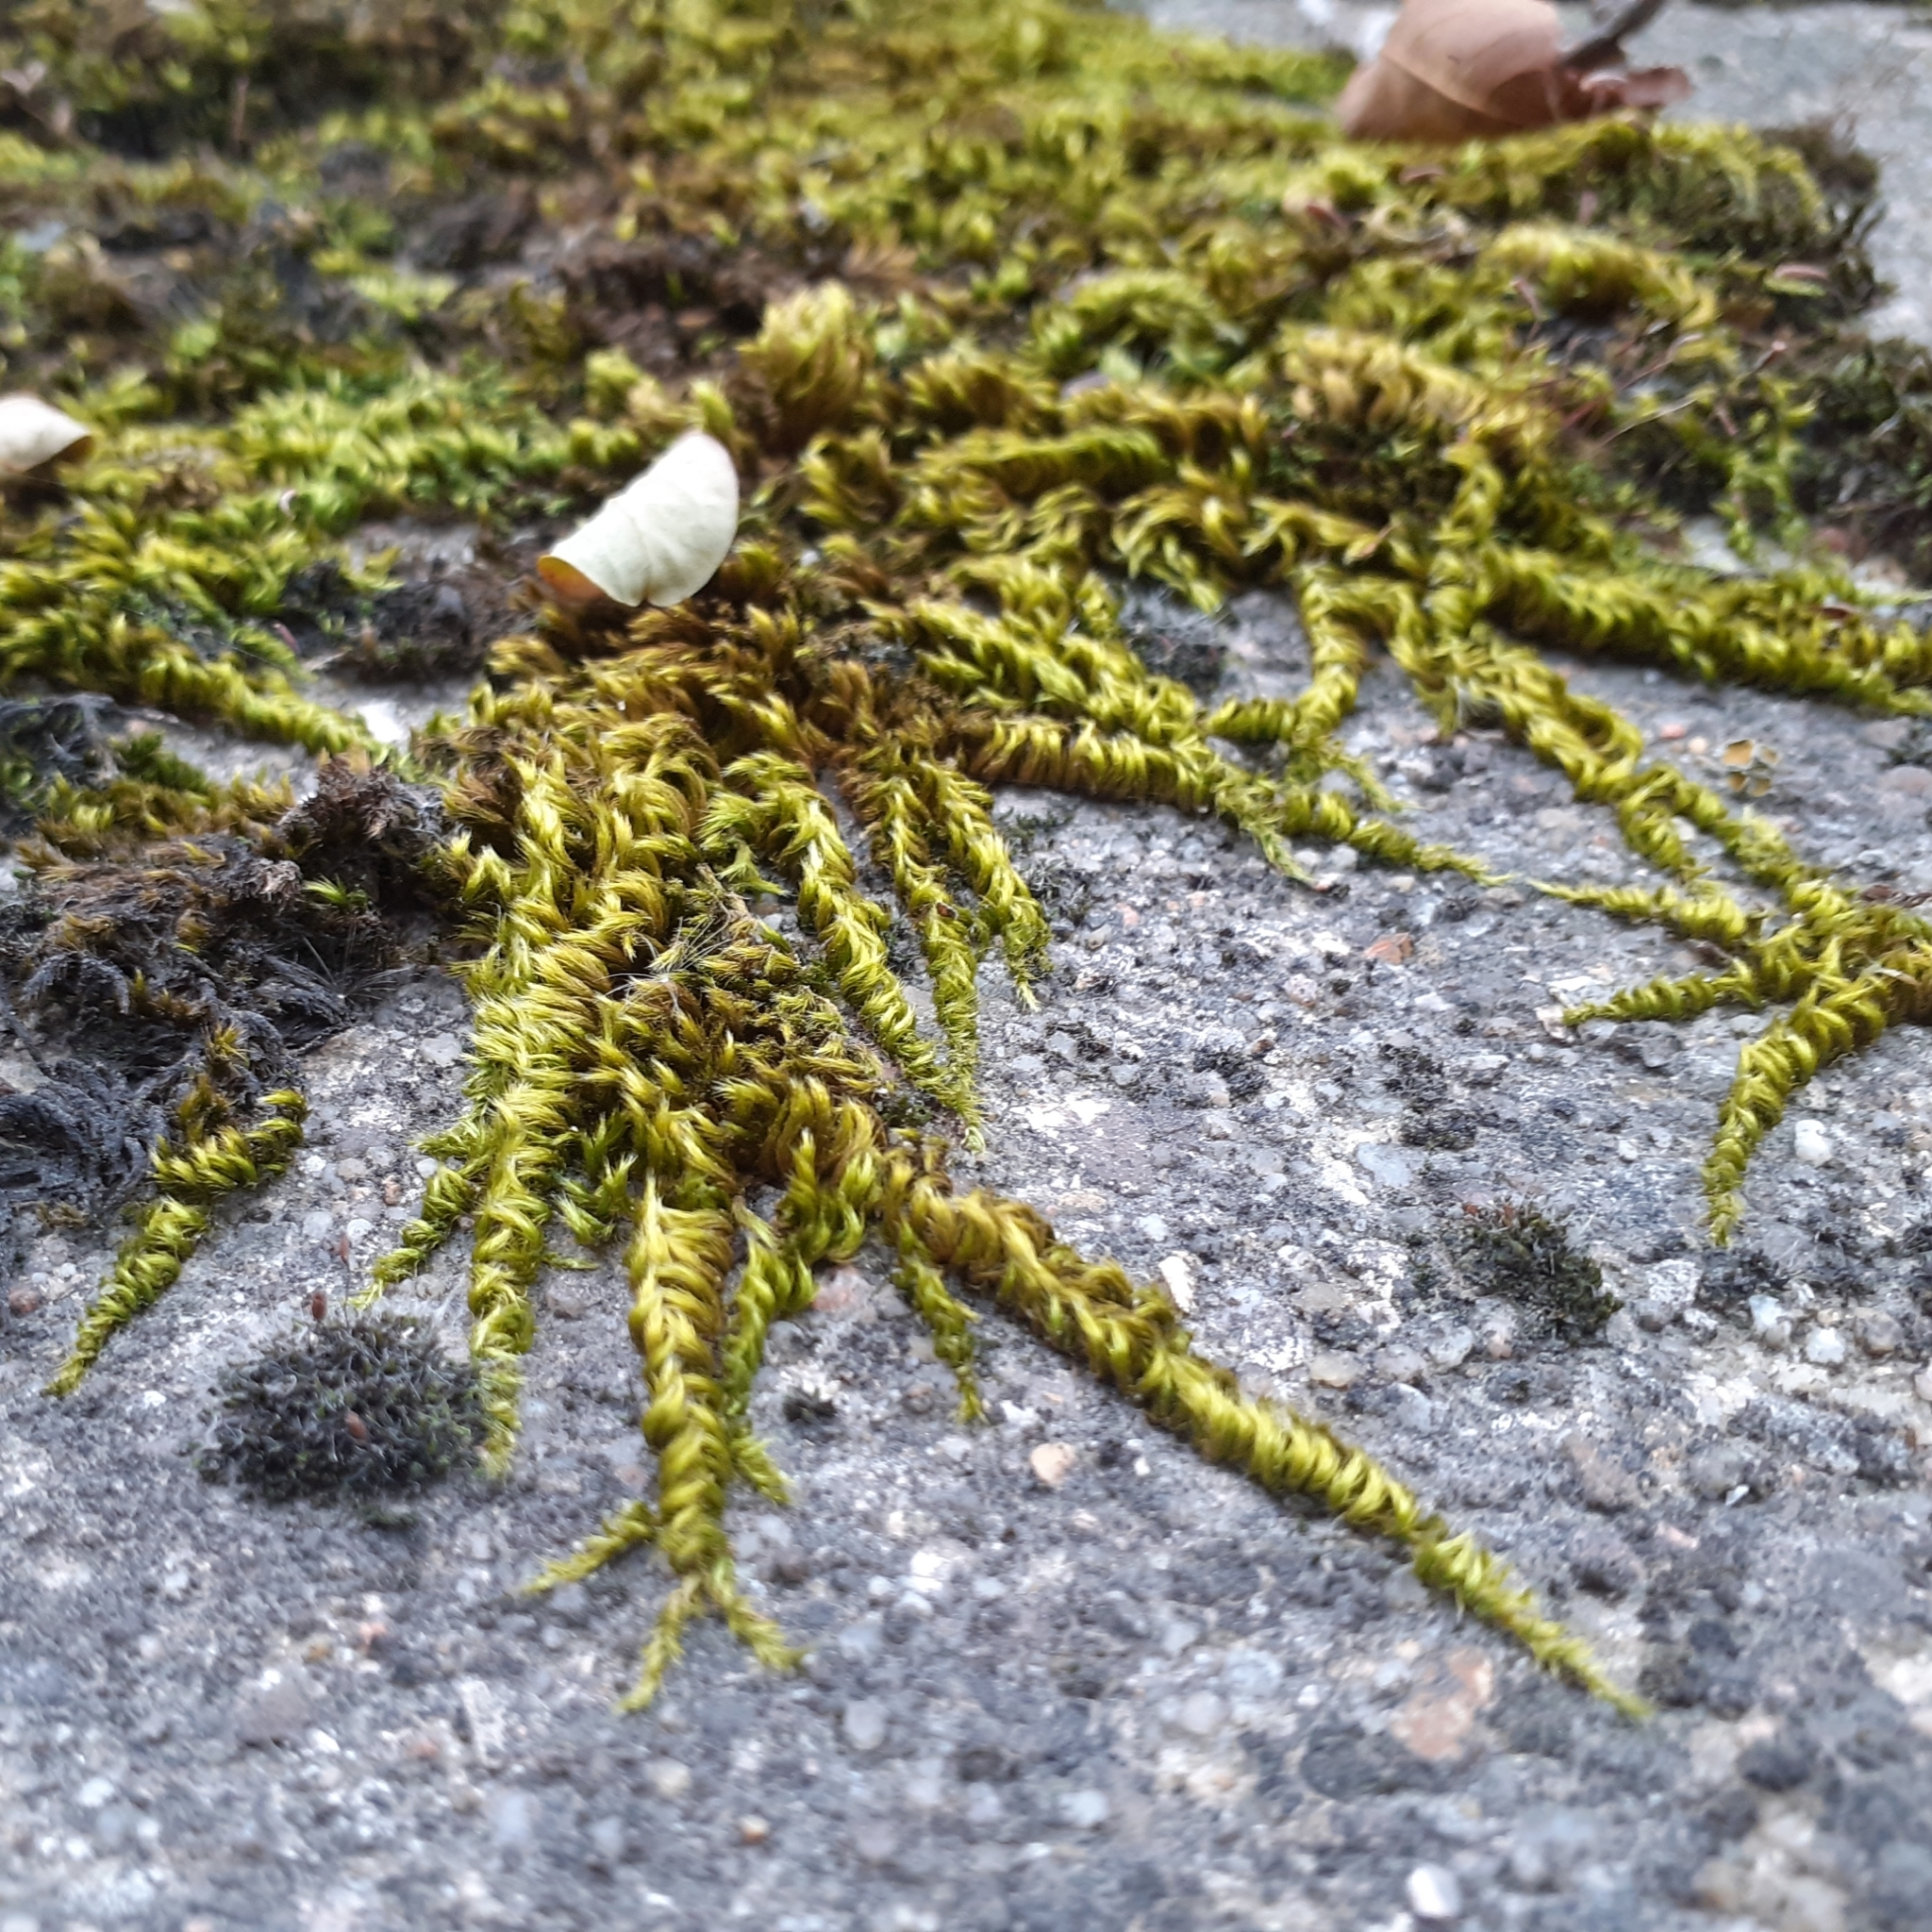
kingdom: Plantae
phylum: Bryophyta
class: Bryopsida
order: Hypnales
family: Brachytheciaceae
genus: Homalothecium
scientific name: Homalothecium sericeum
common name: Silky wall feather-moss
